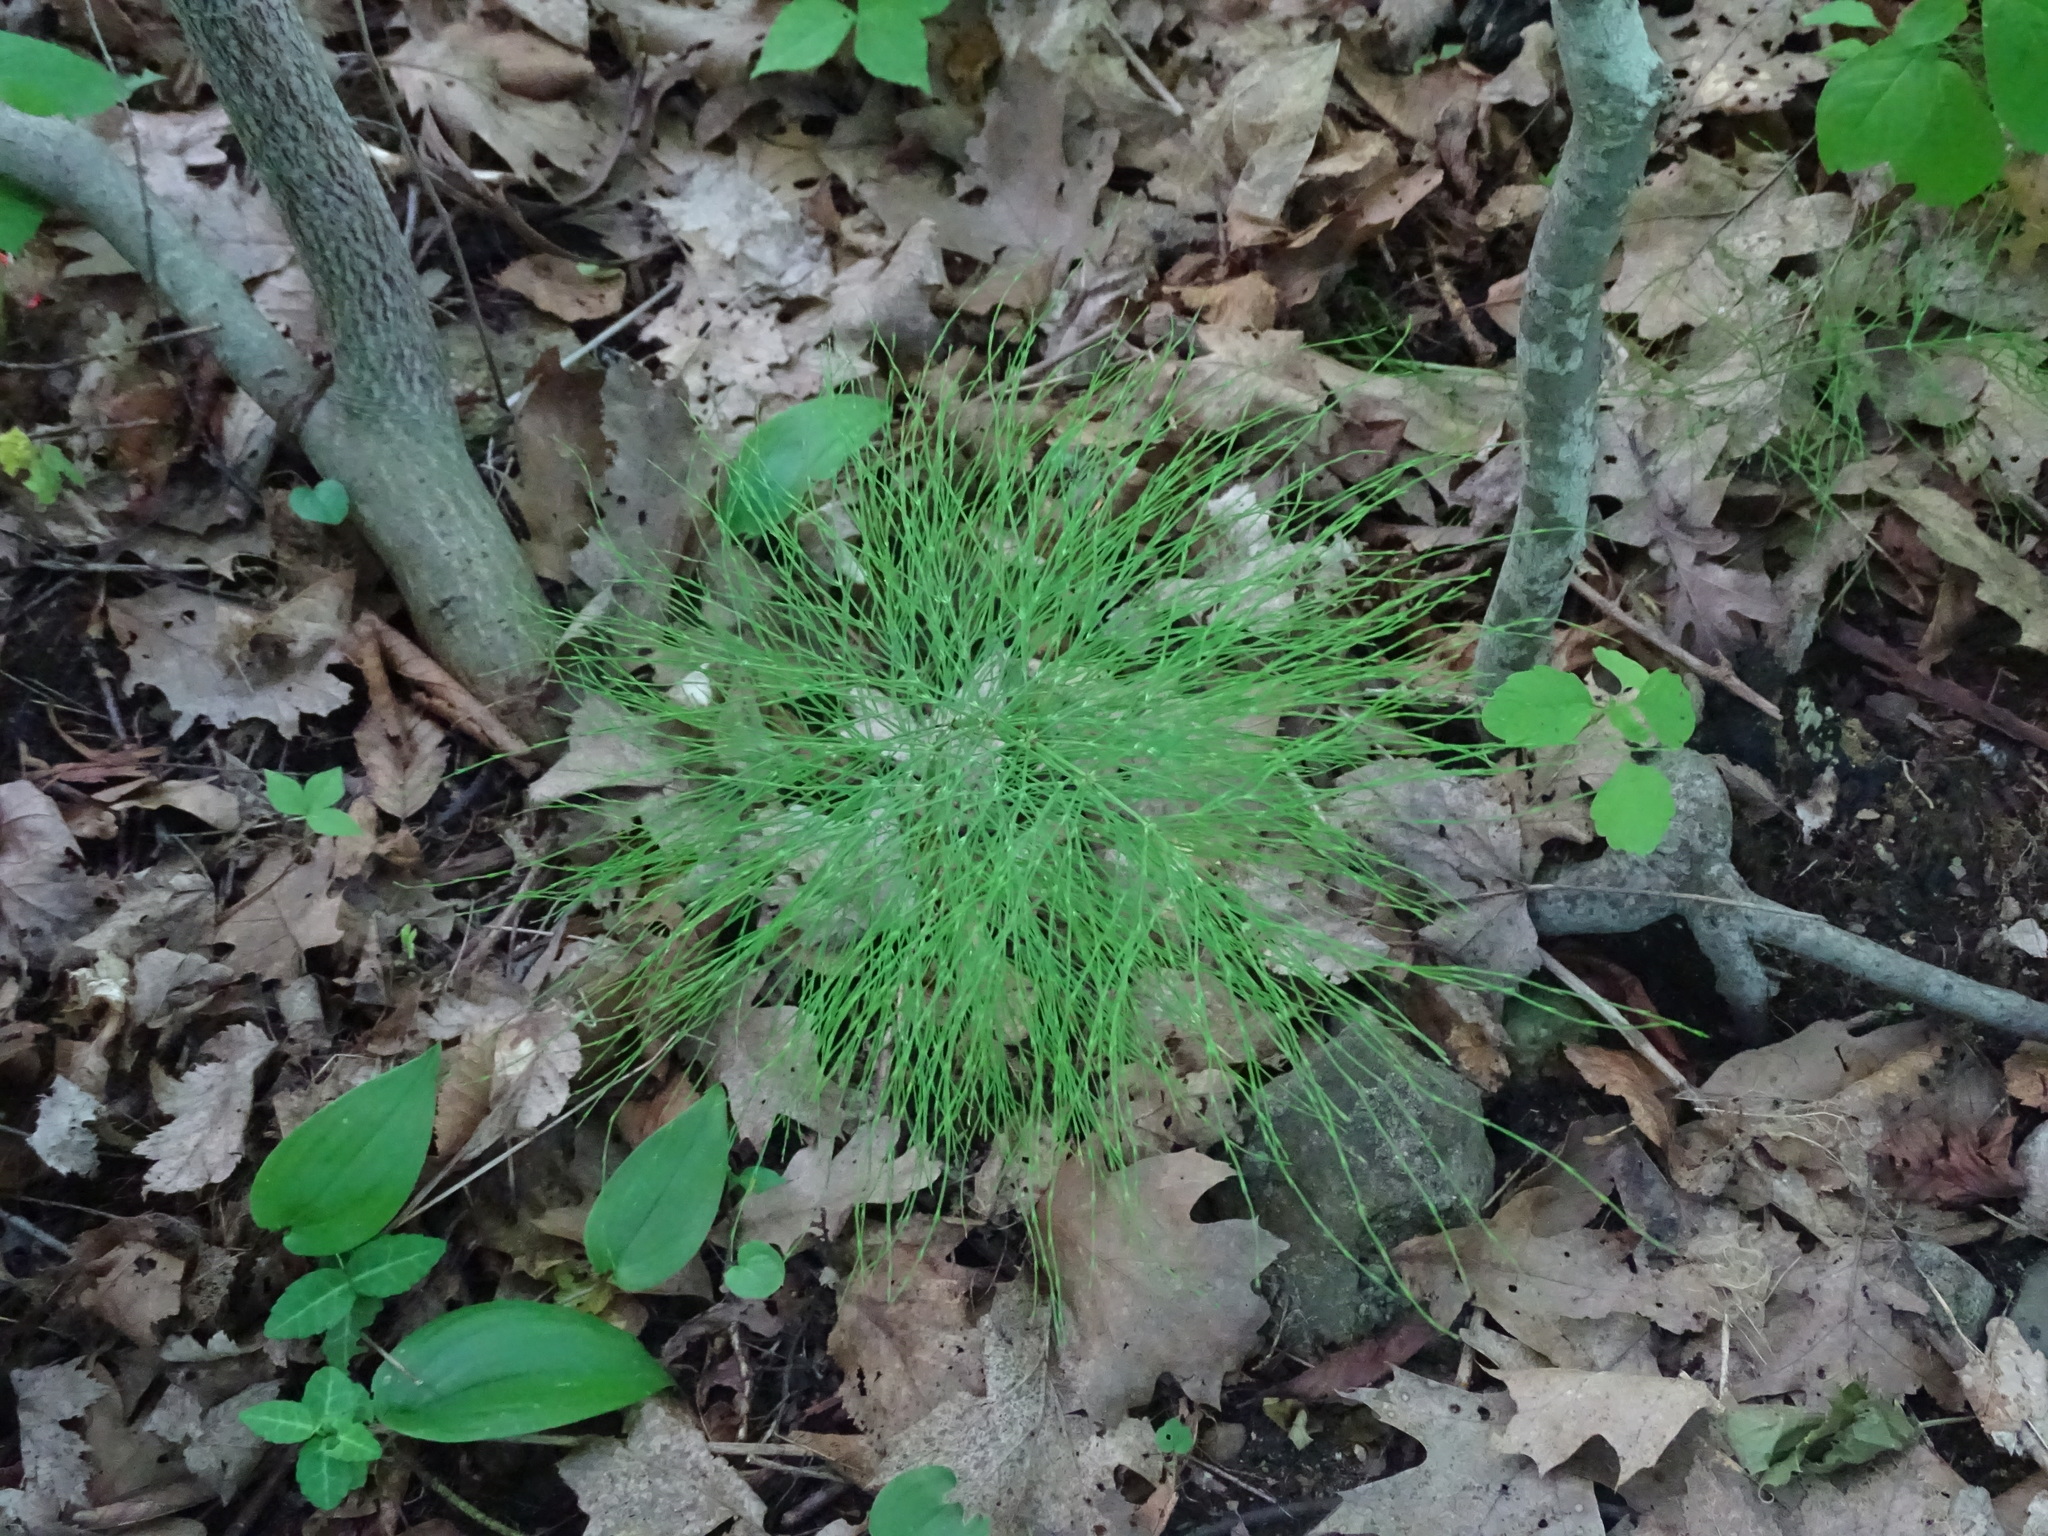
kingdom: Plantae
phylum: Tracheophyta
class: Polypodiopsida
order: Equisetales
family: Equisetaceae
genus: Equisetum
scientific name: Equisetum sylvaticum
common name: Wood horsetail
